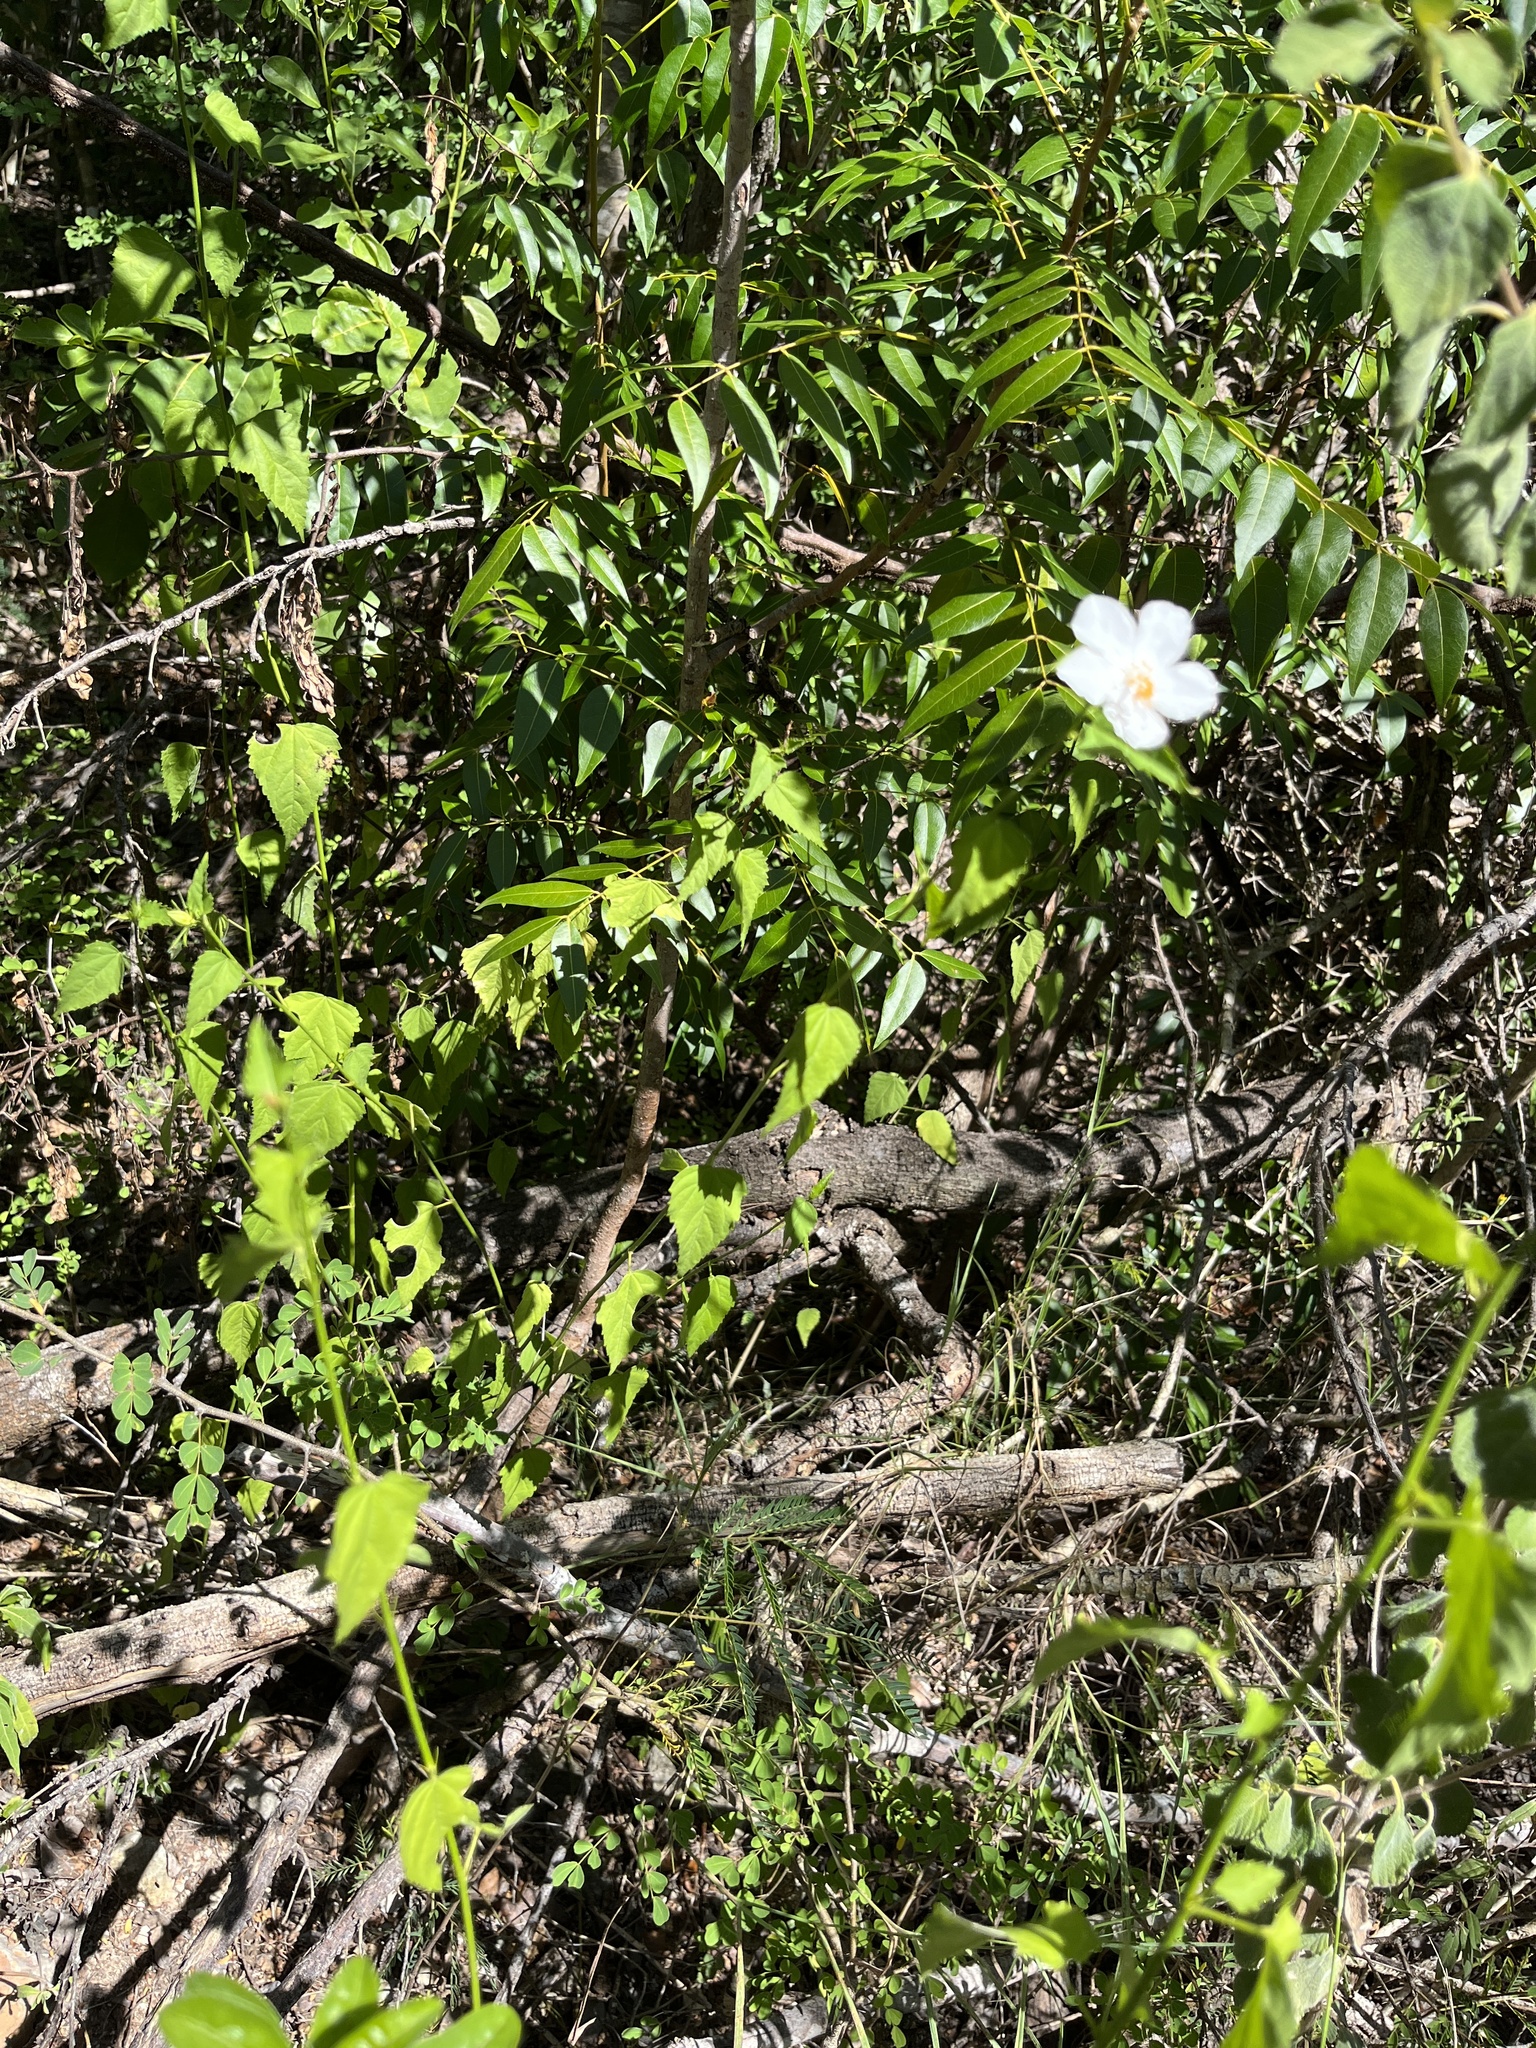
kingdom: Plantae
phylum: Tracheophyta
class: Magnoliopsida
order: Malvales
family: Malvaceae
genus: Hibiscus
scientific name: Hibiscus phoeniceus
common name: Brazilian rosemallow
